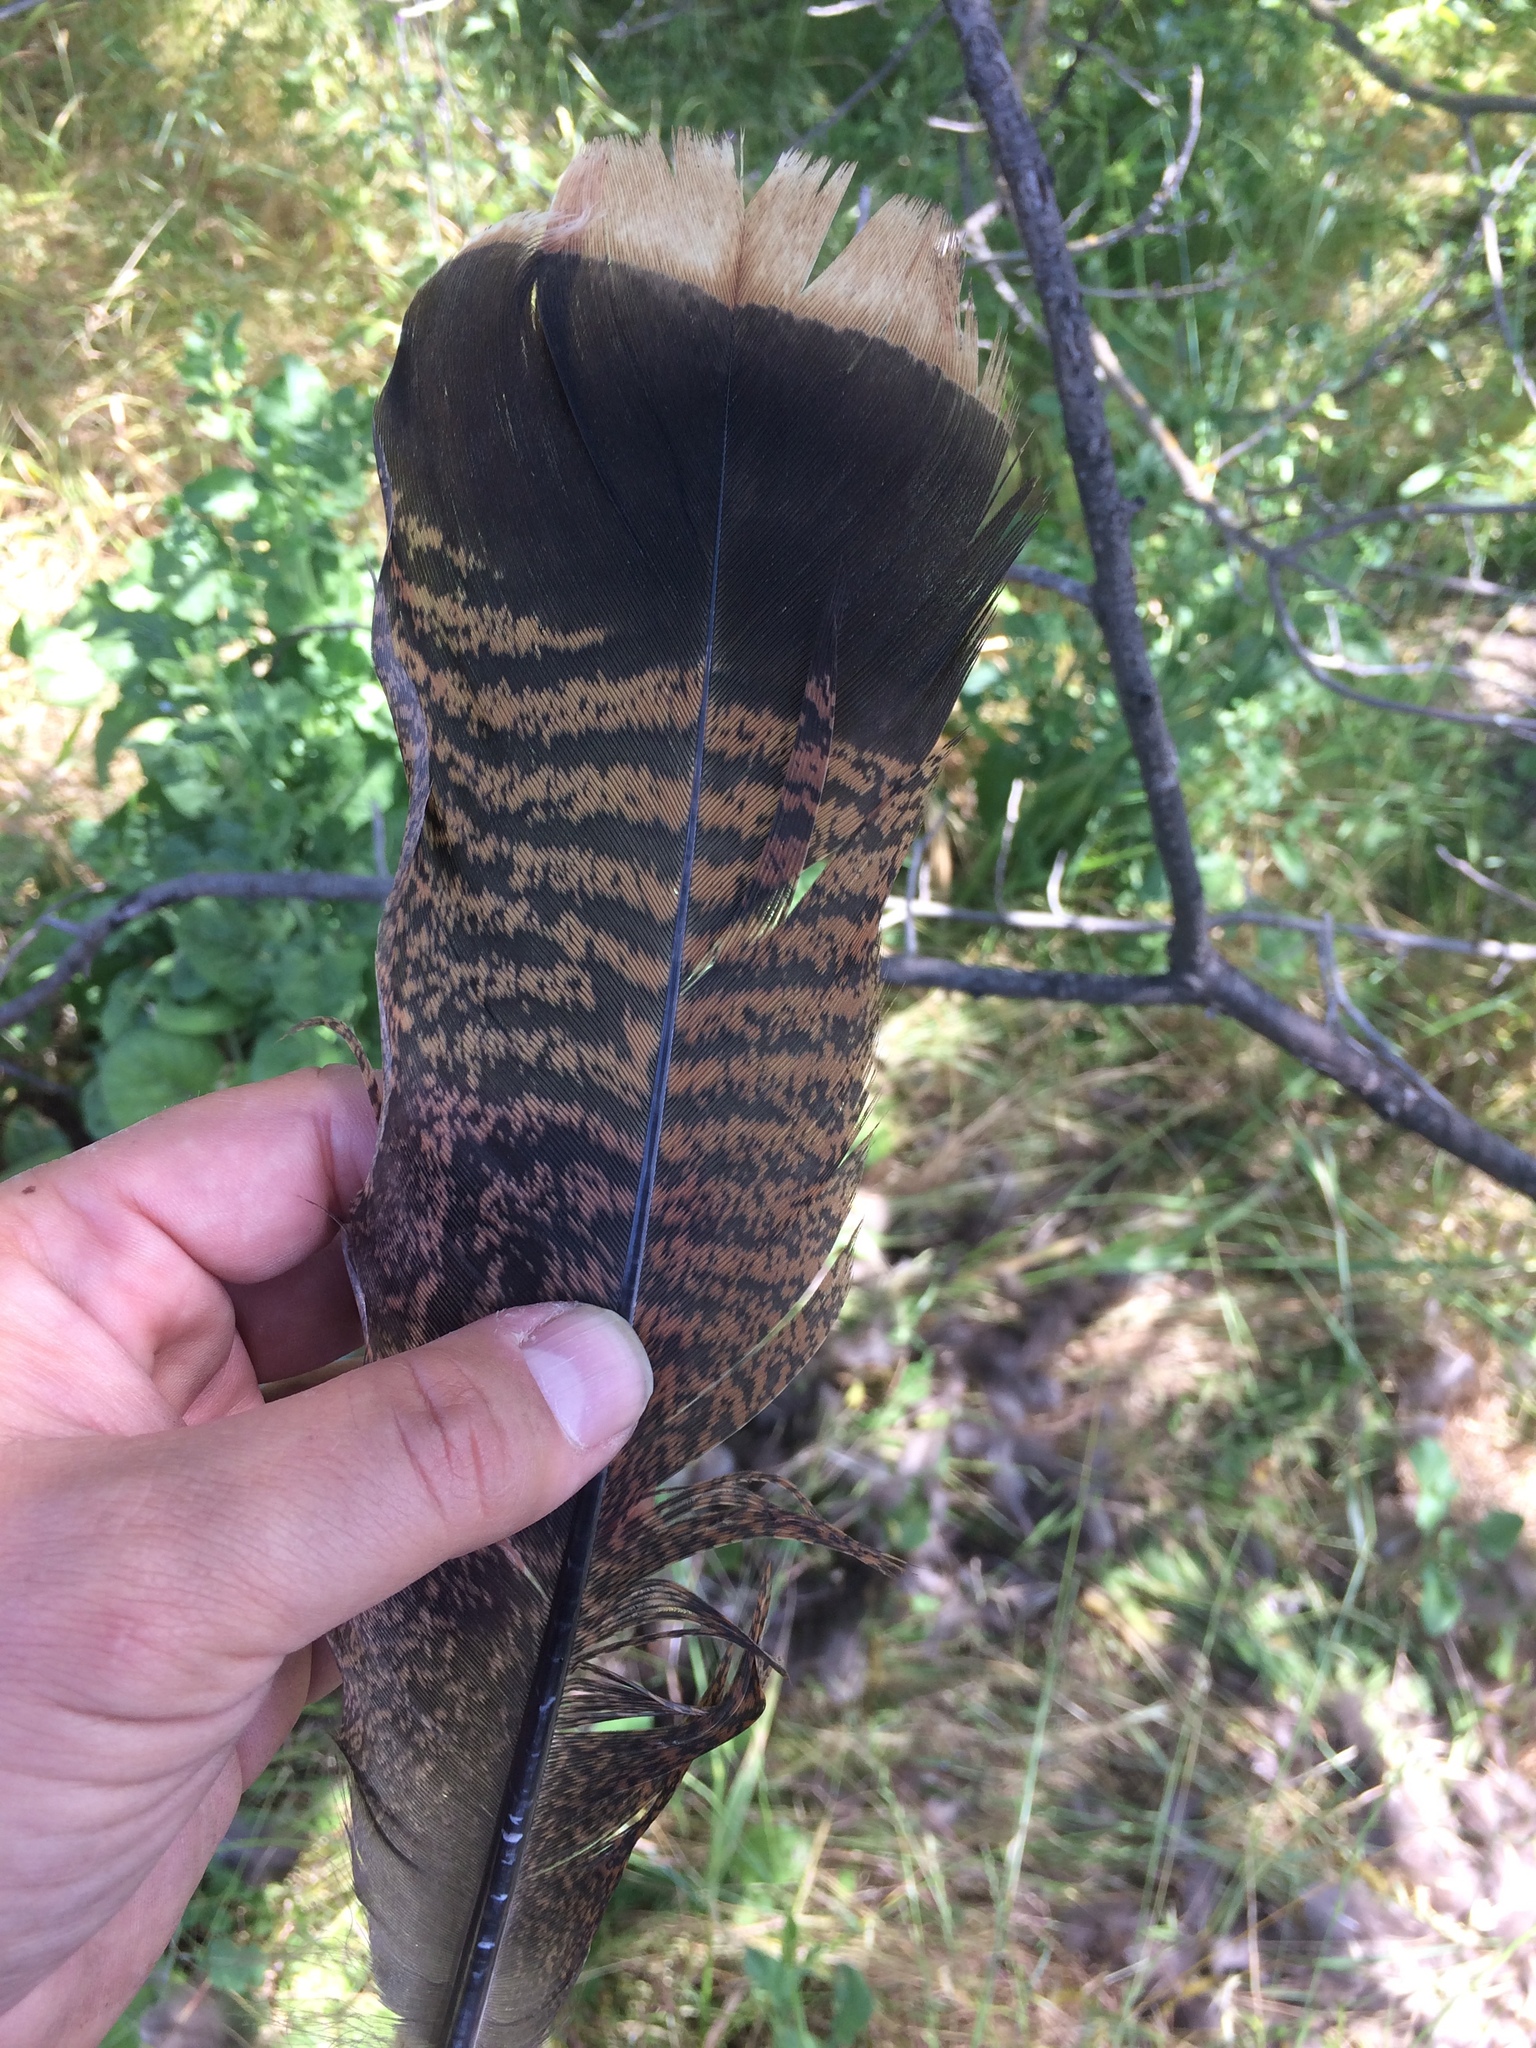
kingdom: Animalia
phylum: Chordata
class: Aves
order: Galliformes
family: Phasianidae
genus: Meleagris
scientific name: Meleagris gallopavo
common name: Wild turkey
